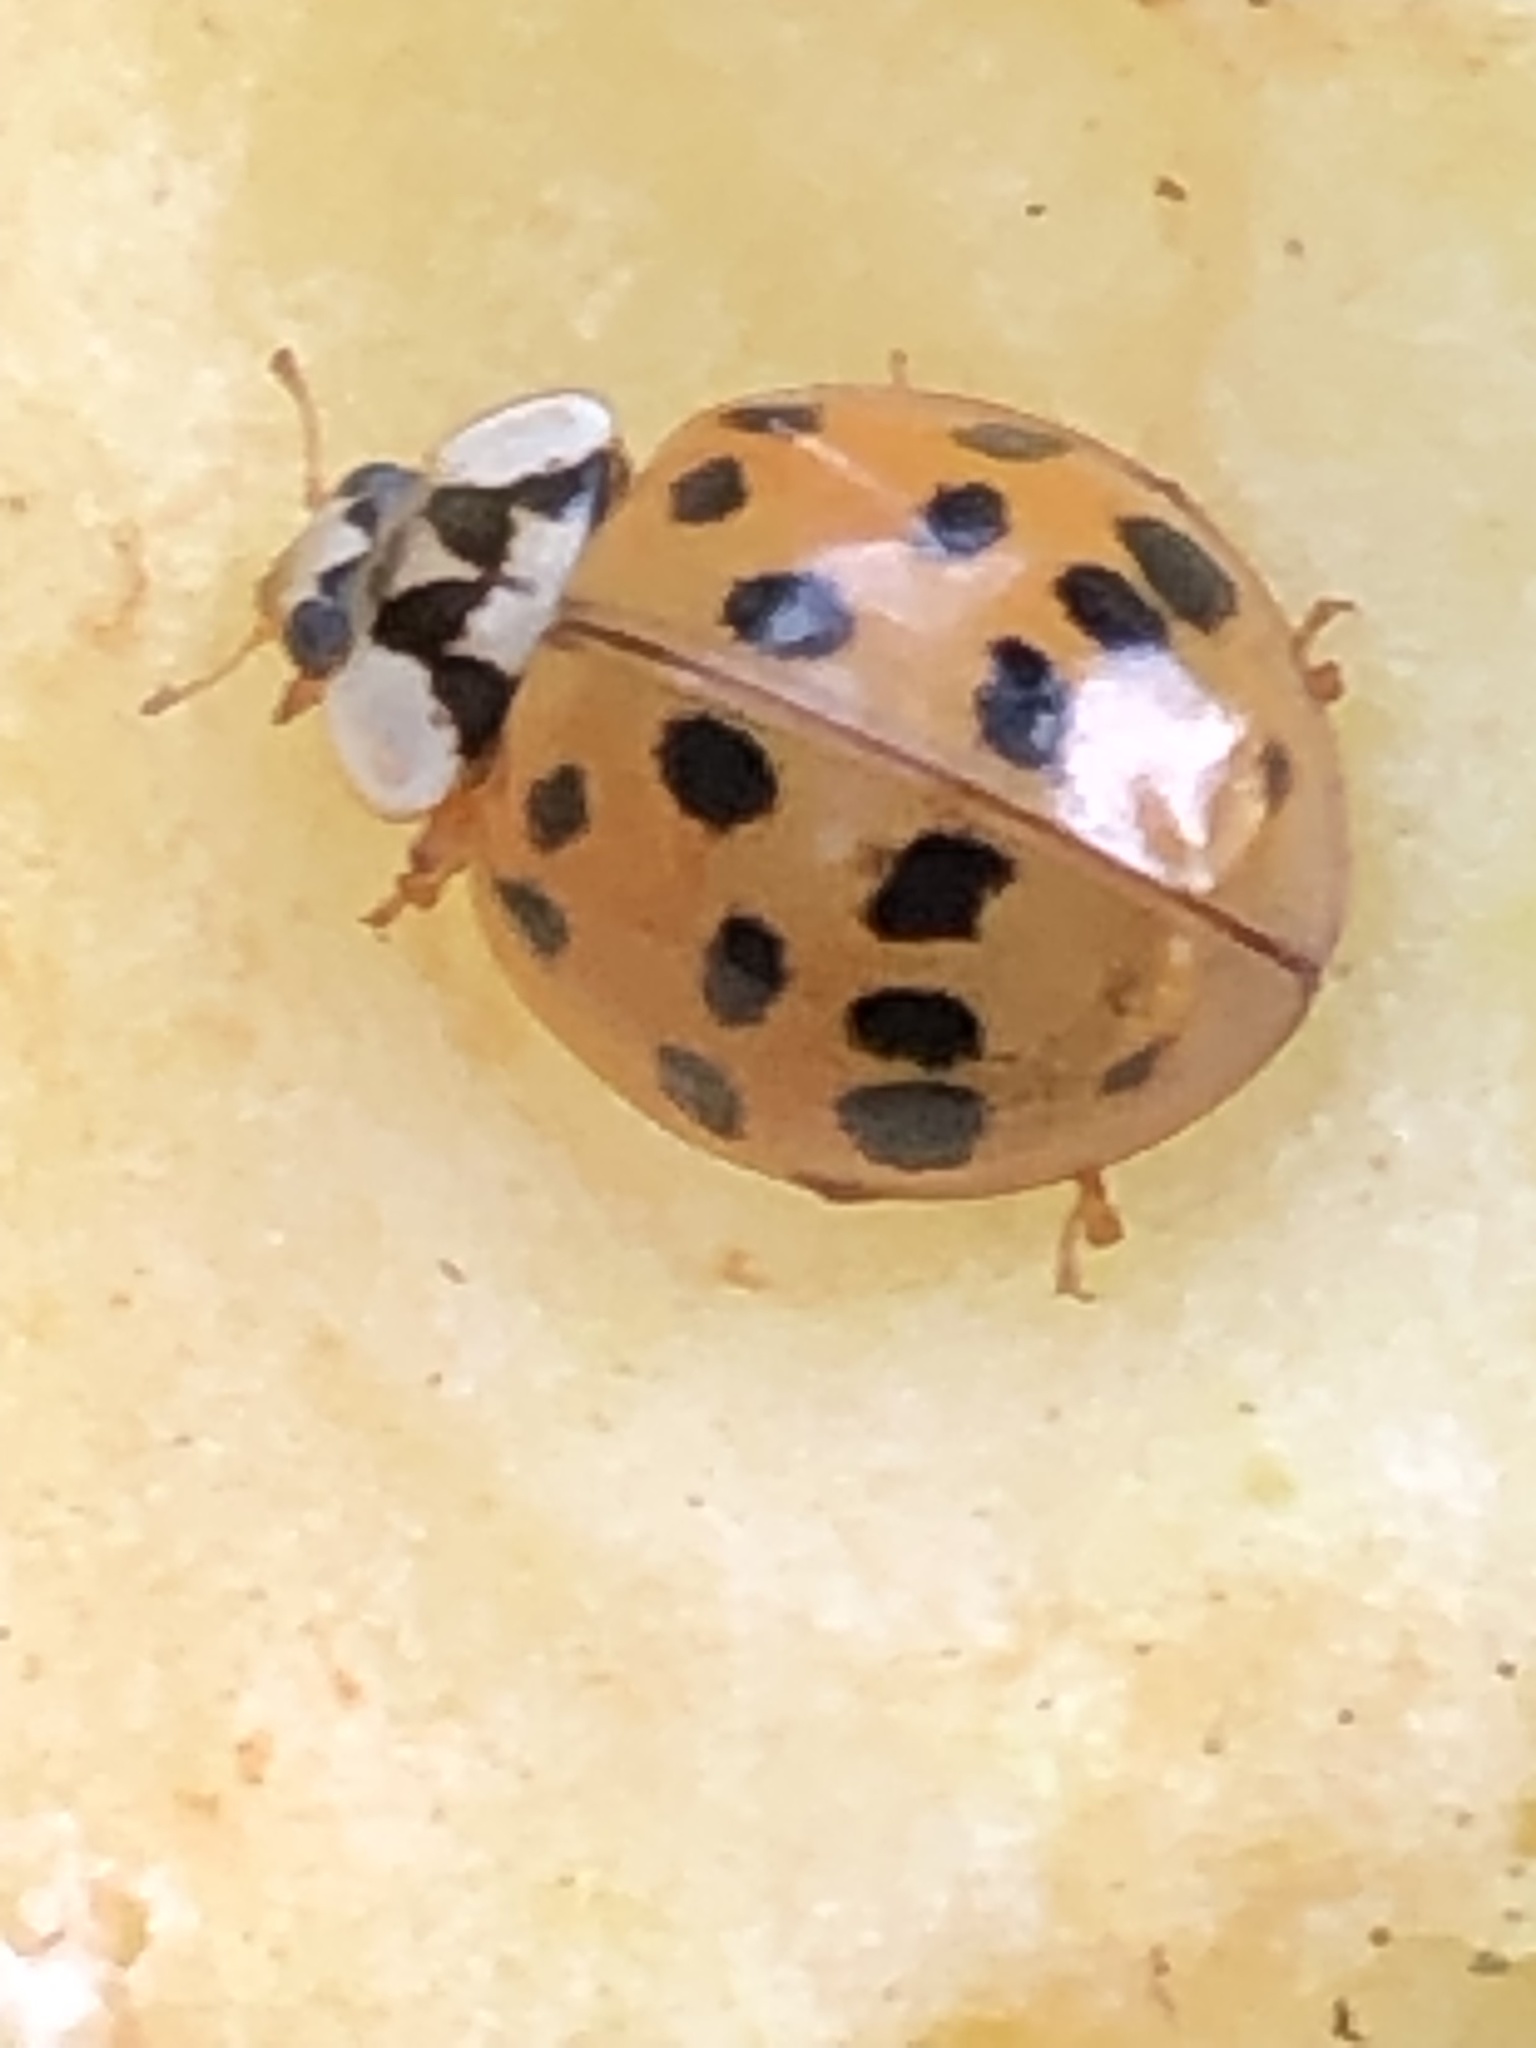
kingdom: Animalia
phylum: Arthropoda
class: Insecta
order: Coleoptera
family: Coccinellidae
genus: Harmonia
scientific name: Harmonia axyridis
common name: Harlequin ladybird
